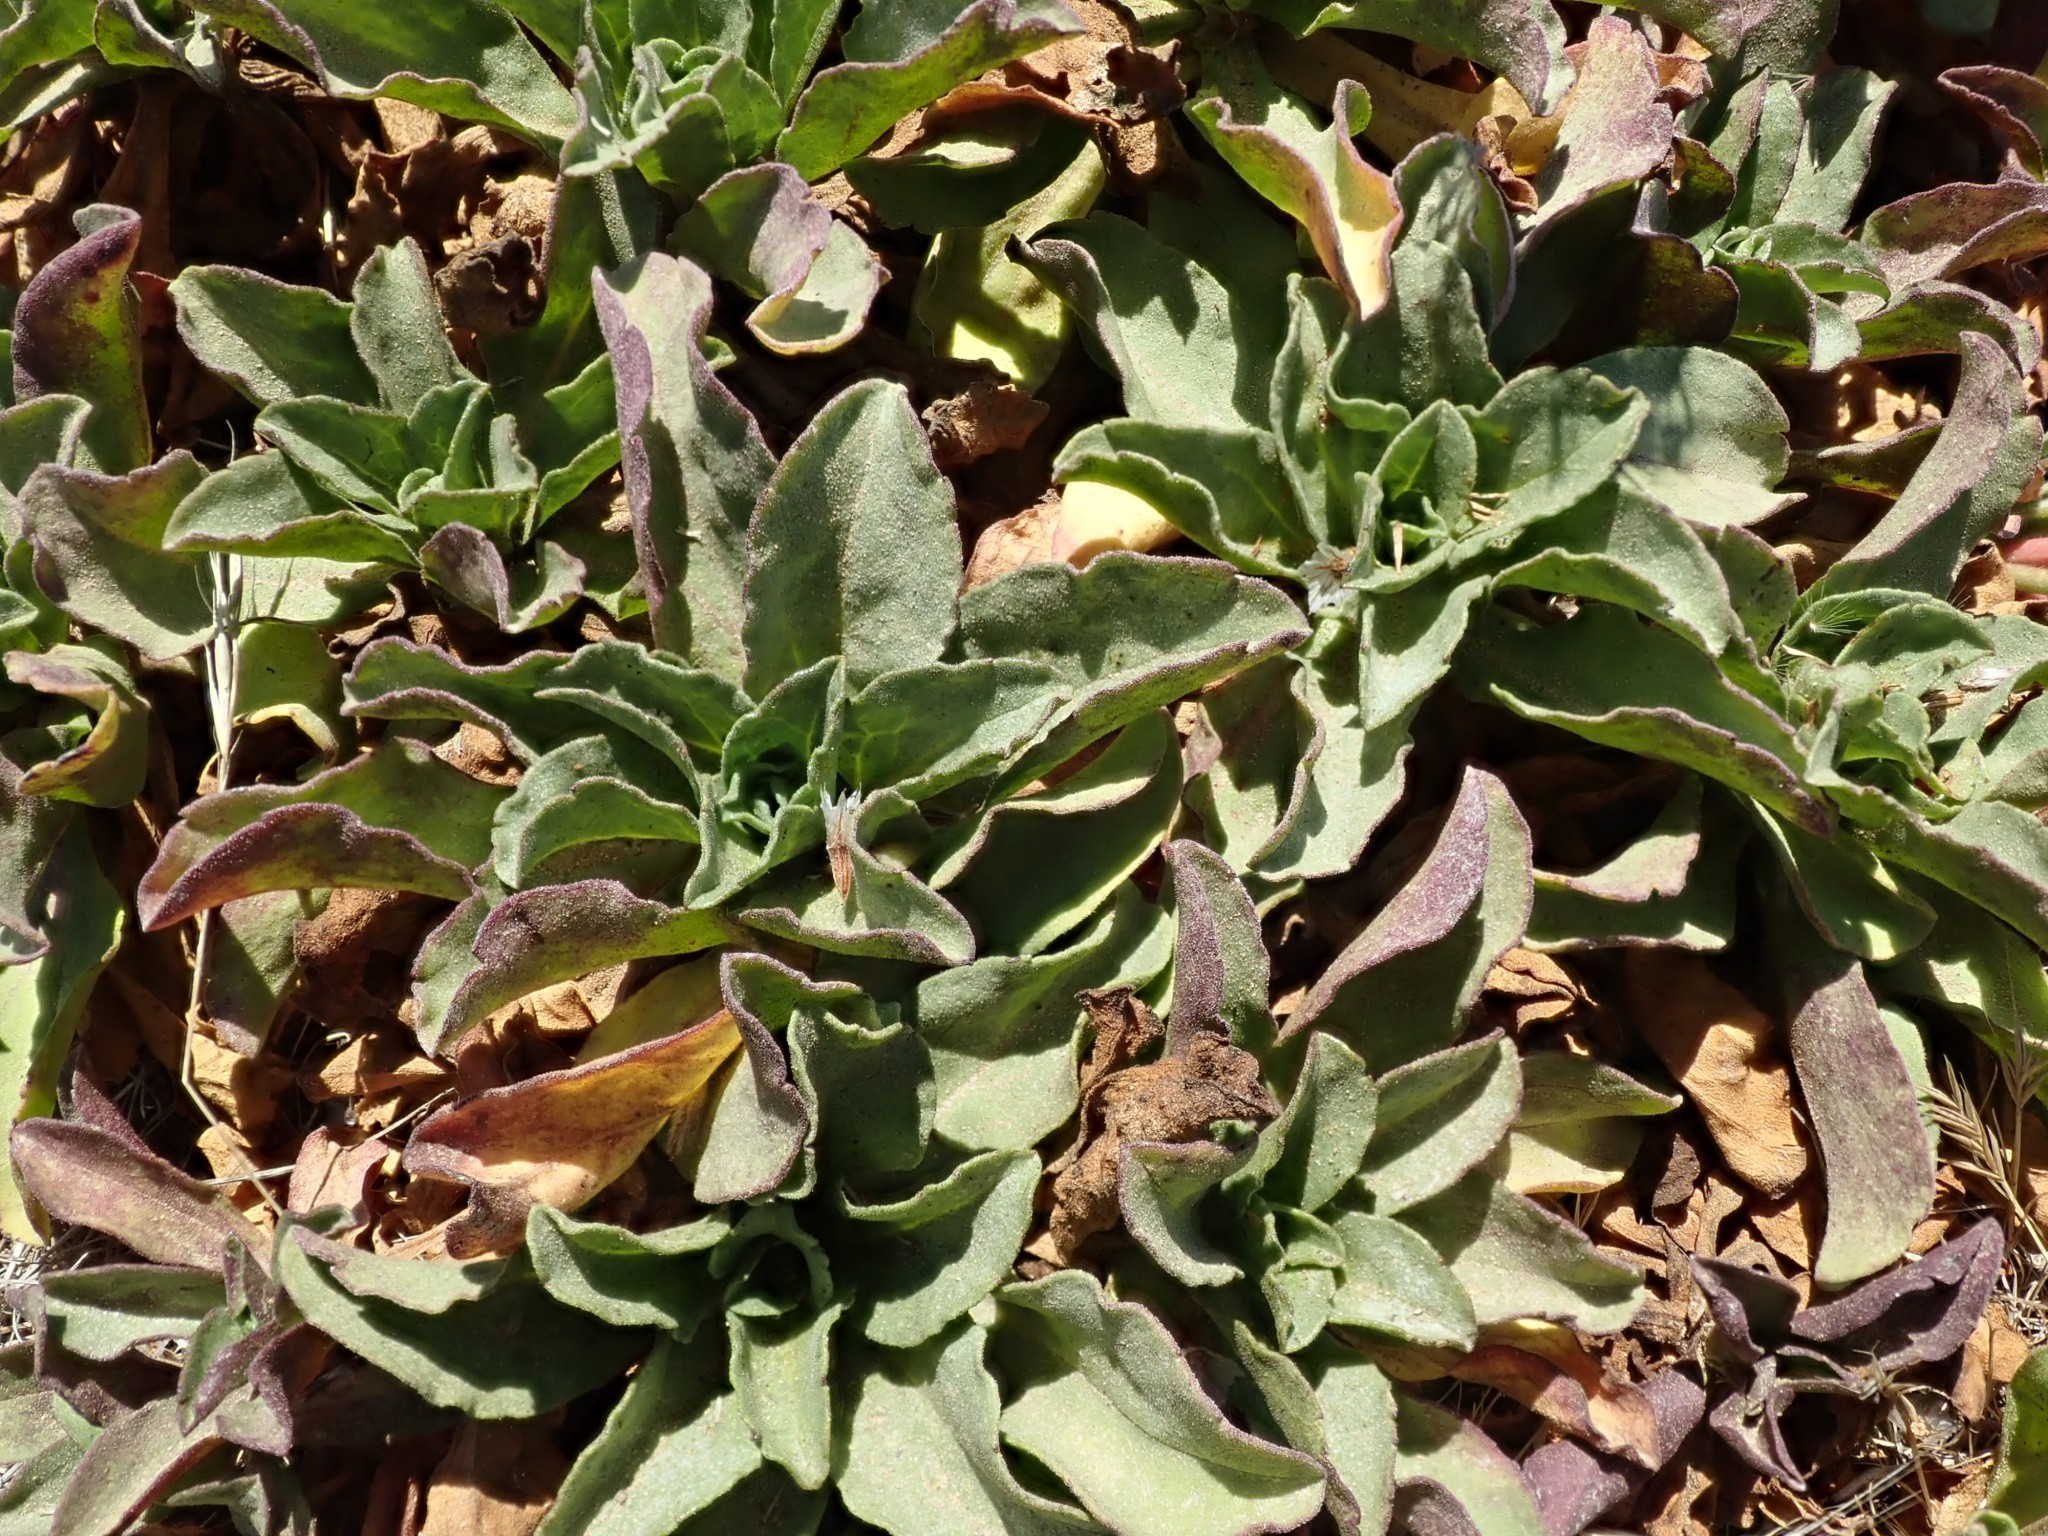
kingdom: Plantae
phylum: Tracheophyta
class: Magnoliopsida
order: Asterales
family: Asteraceae
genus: Erigeron
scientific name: Erigeron glaucus
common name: Seaside daisy
